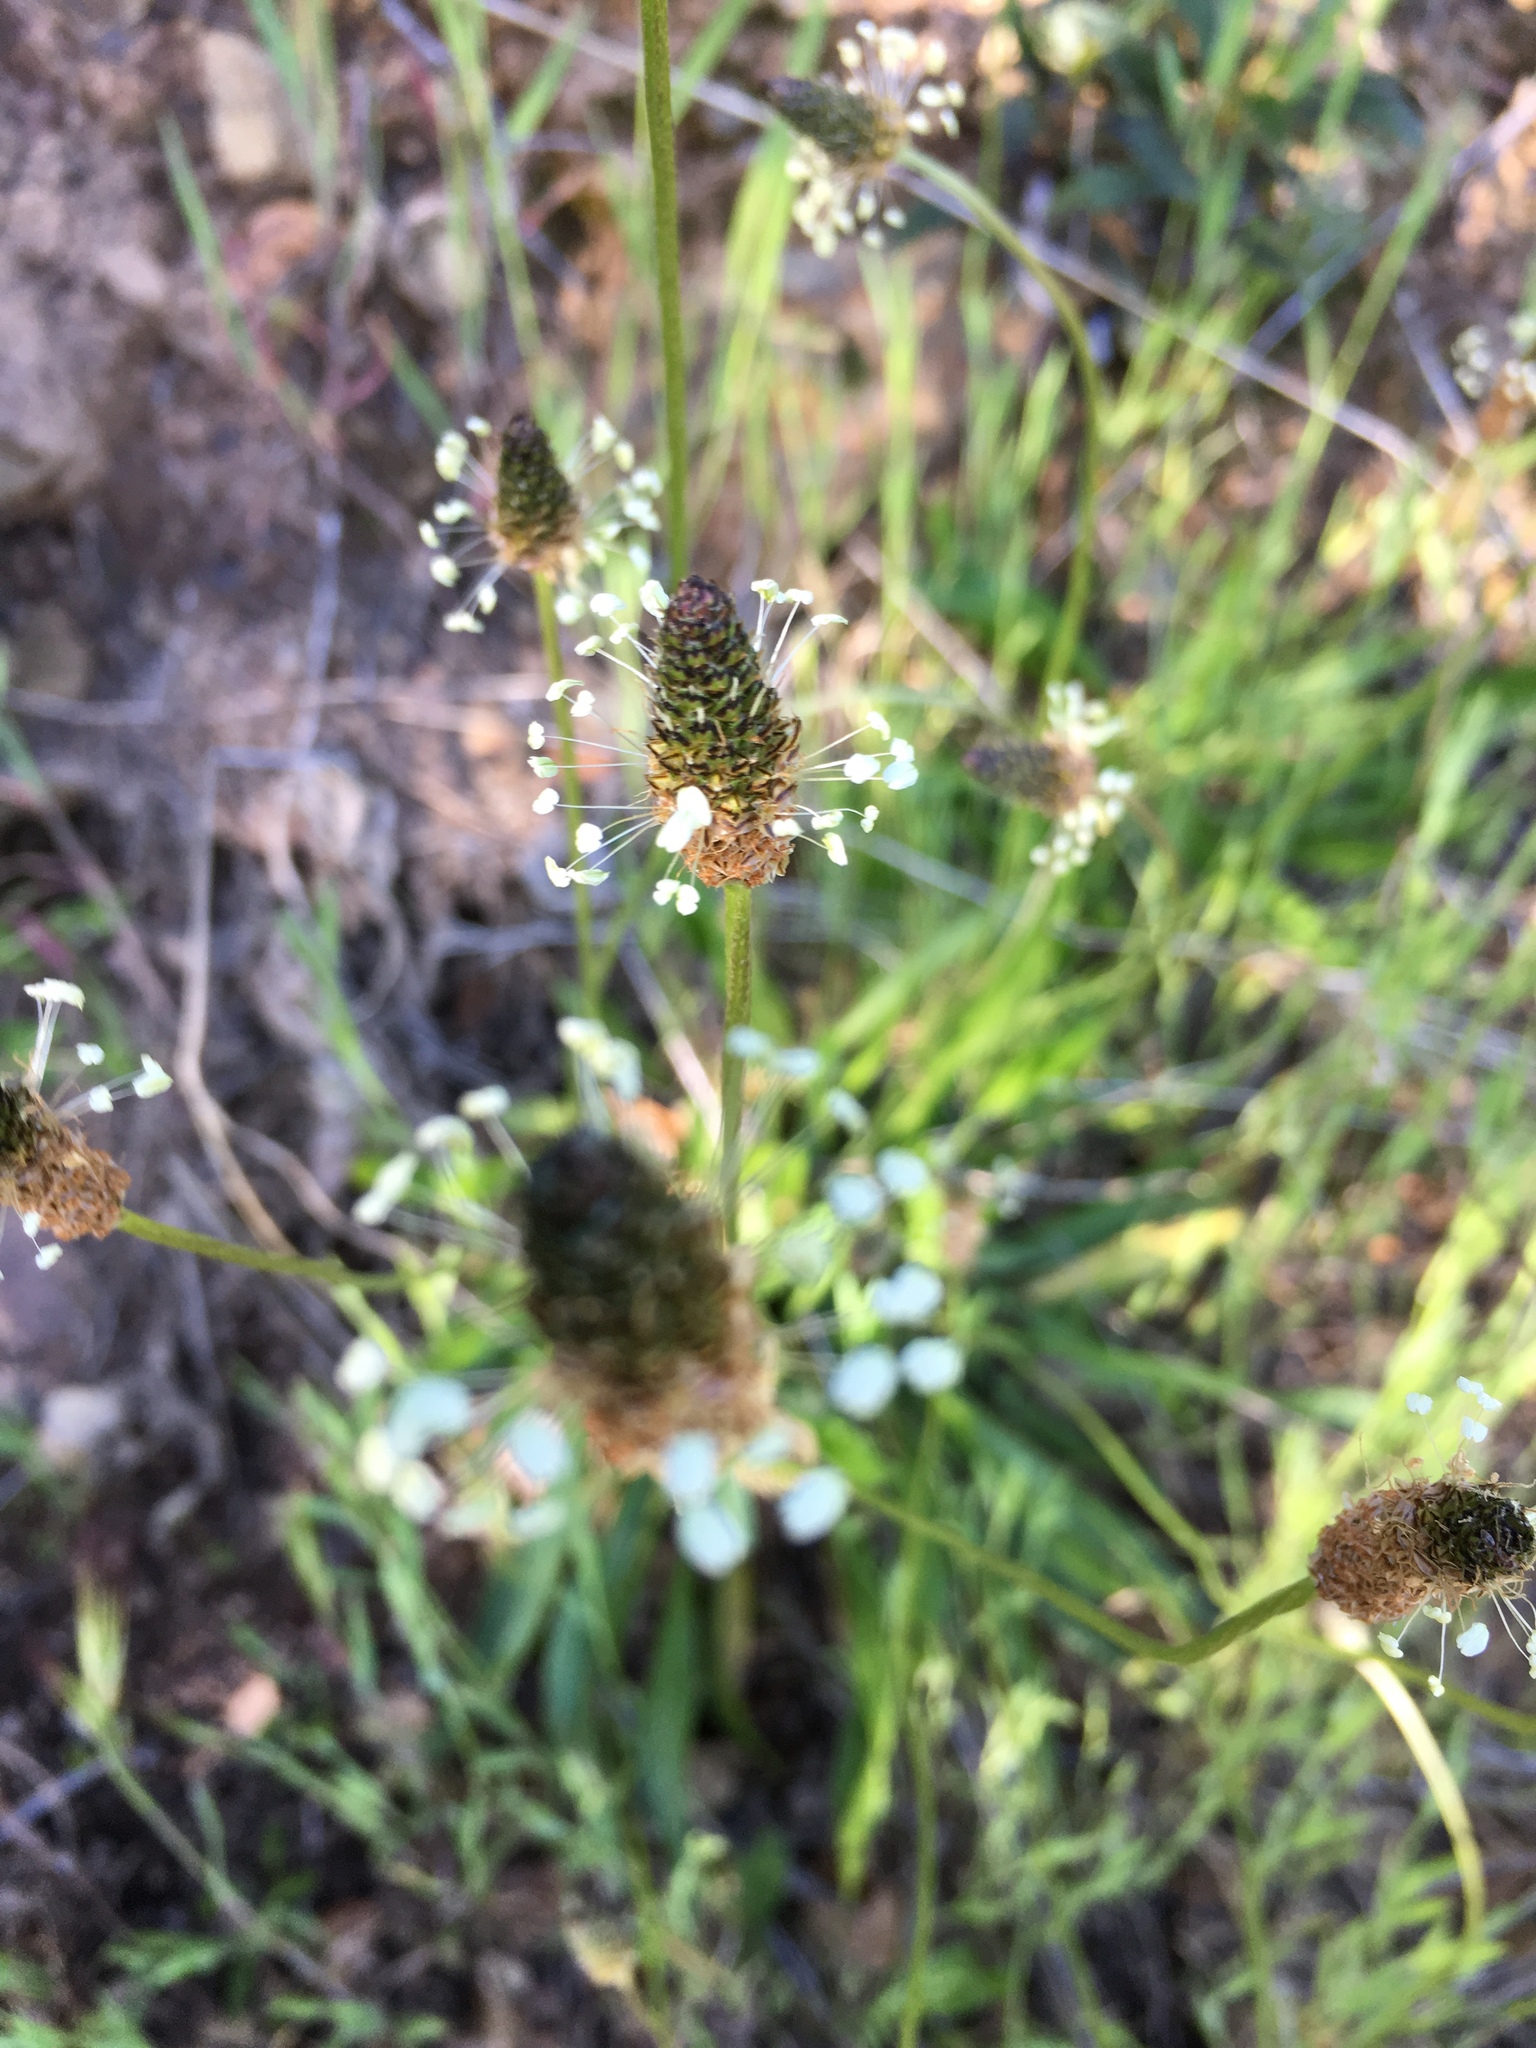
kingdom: Plantae
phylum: Tracheophyta
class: Magnoliopsida
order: Lamiales
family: Plantaginaceae
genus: Plantago
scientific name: Plantago lanceolata
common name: Ribwort plantain
